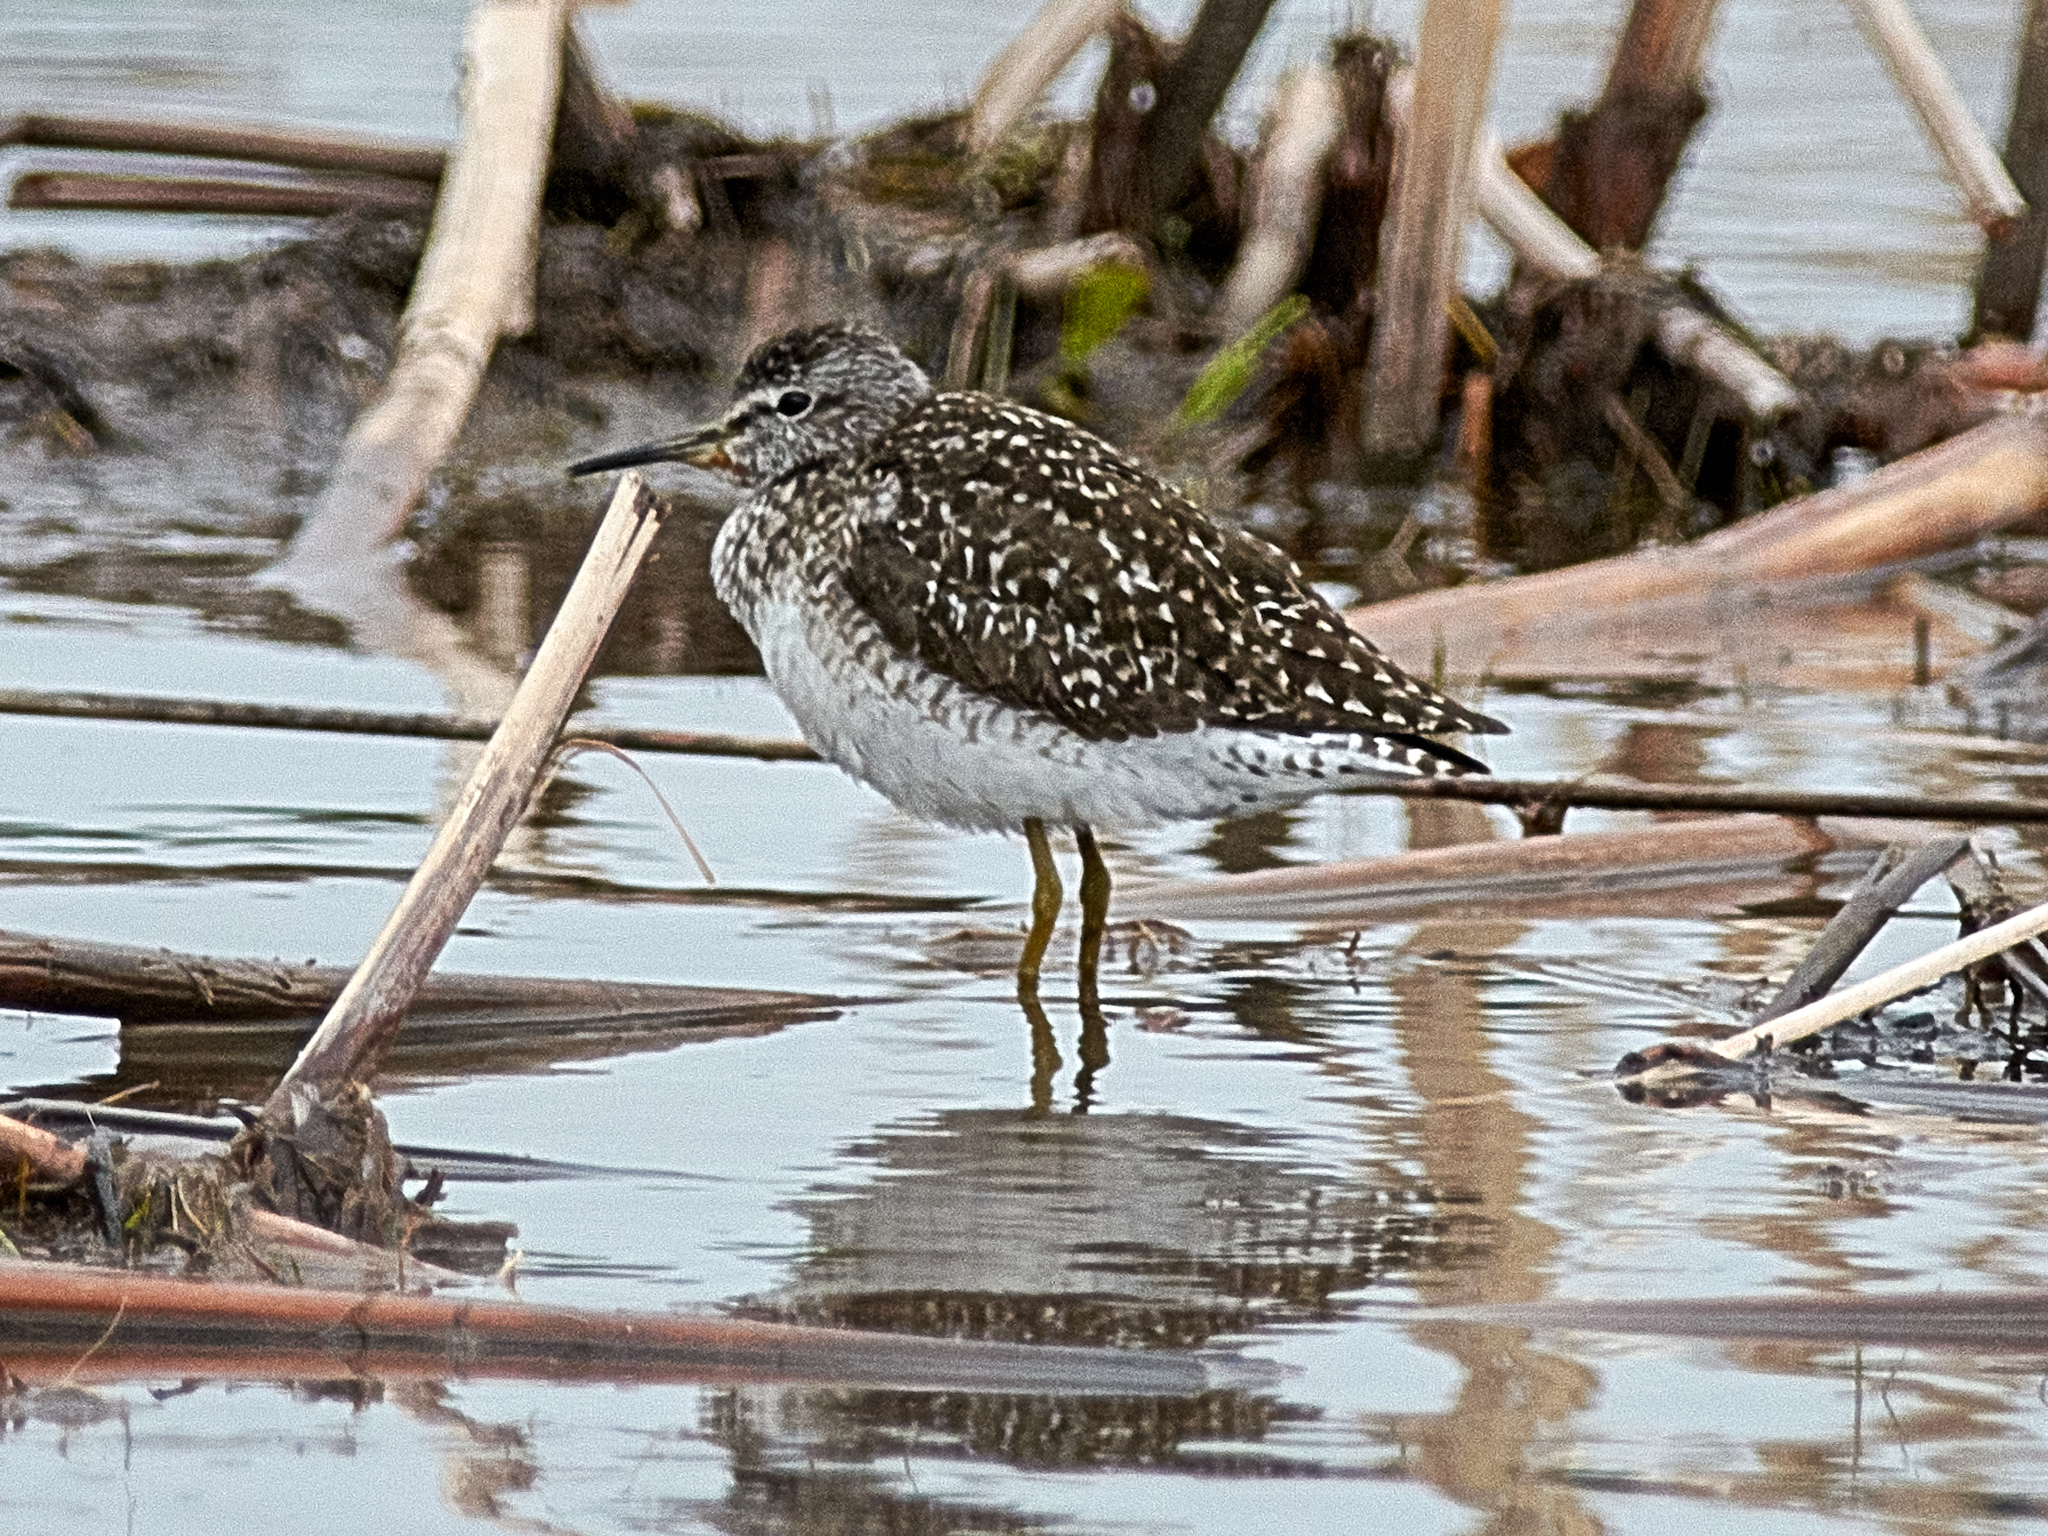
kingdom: Animalia
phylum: Chordata
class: Aves
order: Charadriiformes
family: Scolopacidae
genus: Tringa
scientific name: Tringa glareola
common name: Wood sandpiper
